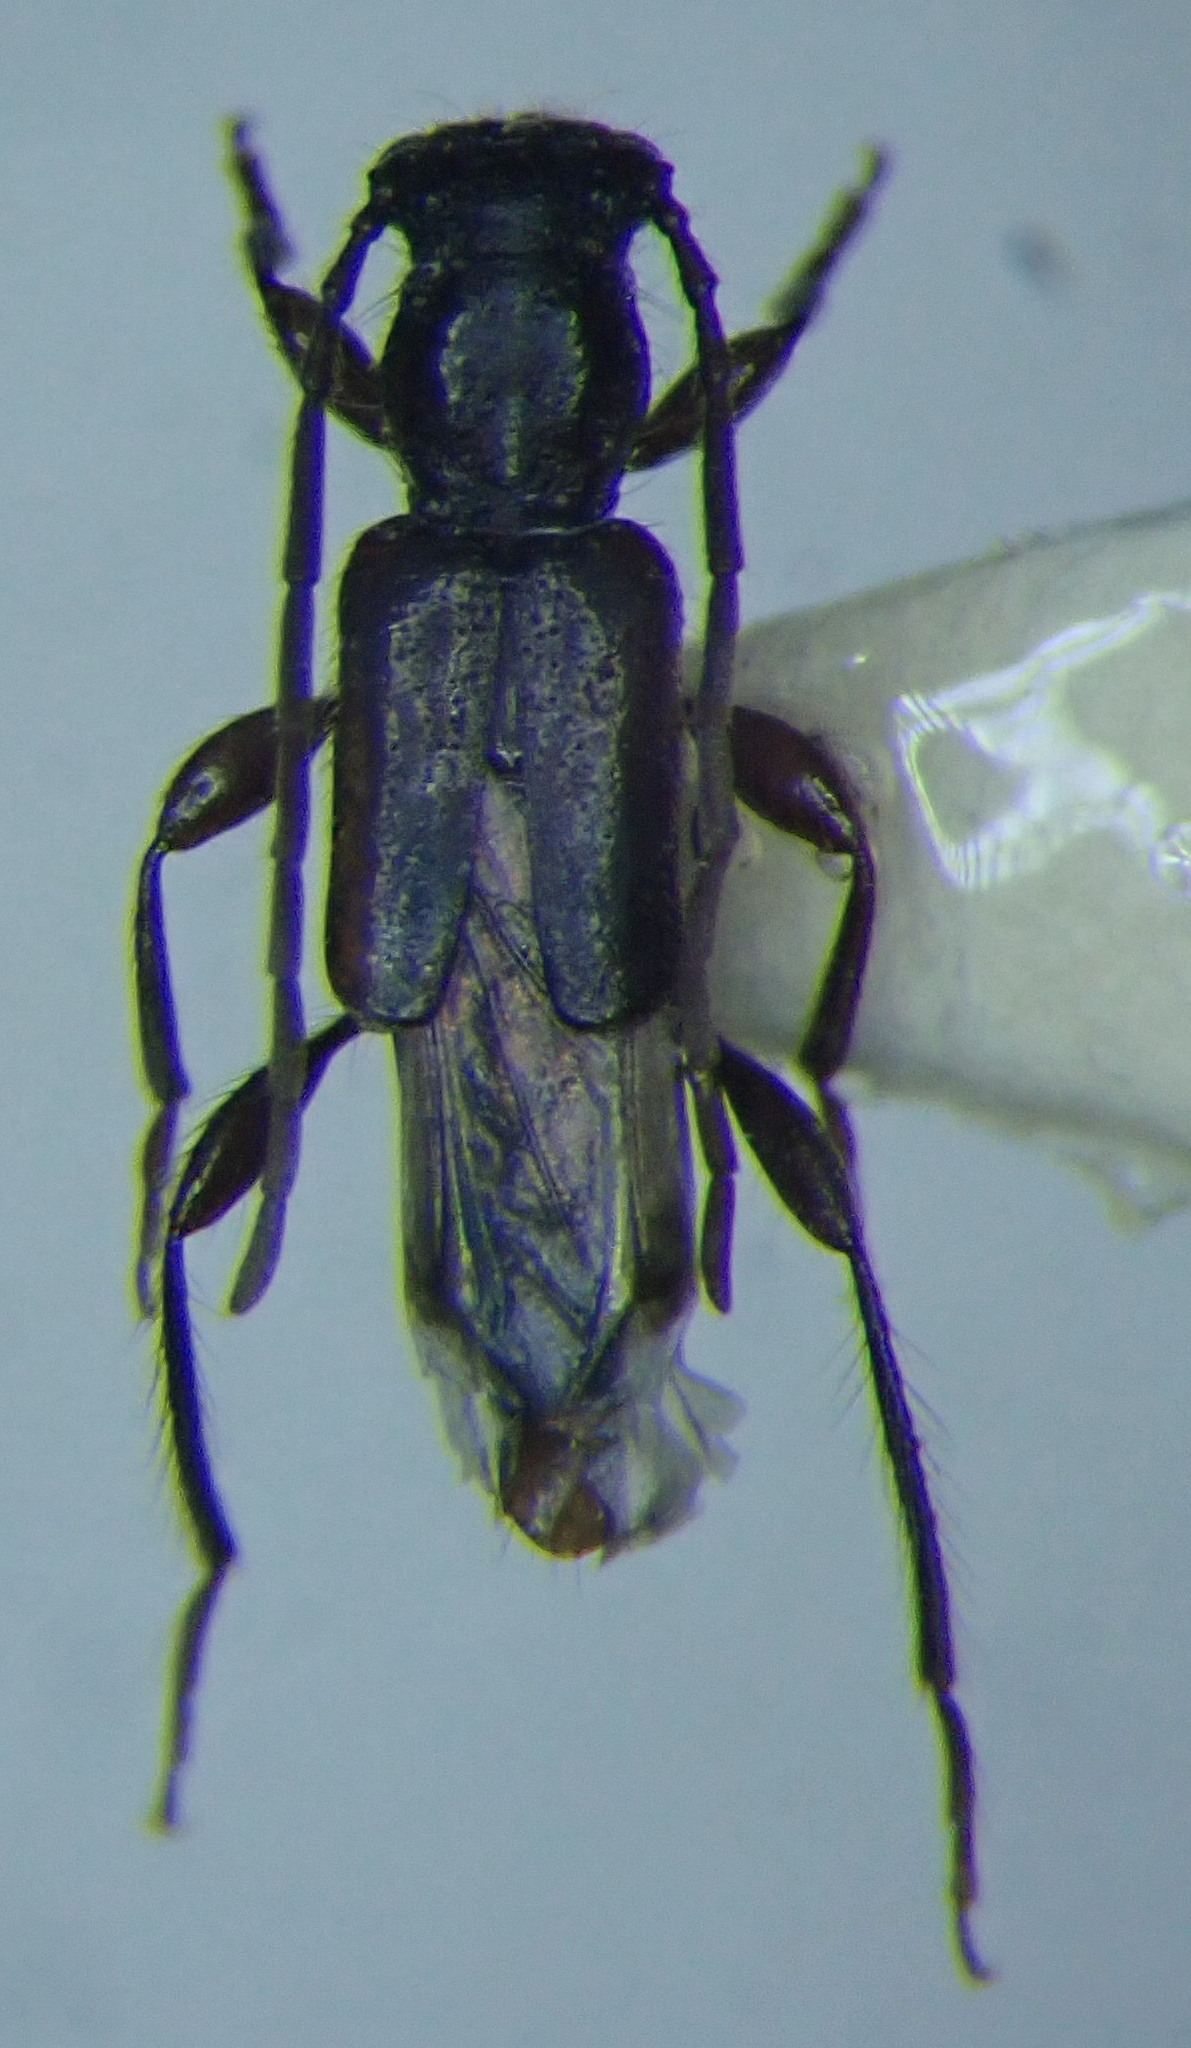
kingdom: Animalia
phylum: Arthropoda
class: Insecta
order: Coleoptera
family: Cerambycidae
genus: Nathrius
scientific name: Nathrius brevipennis
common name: Long-horned beetle
